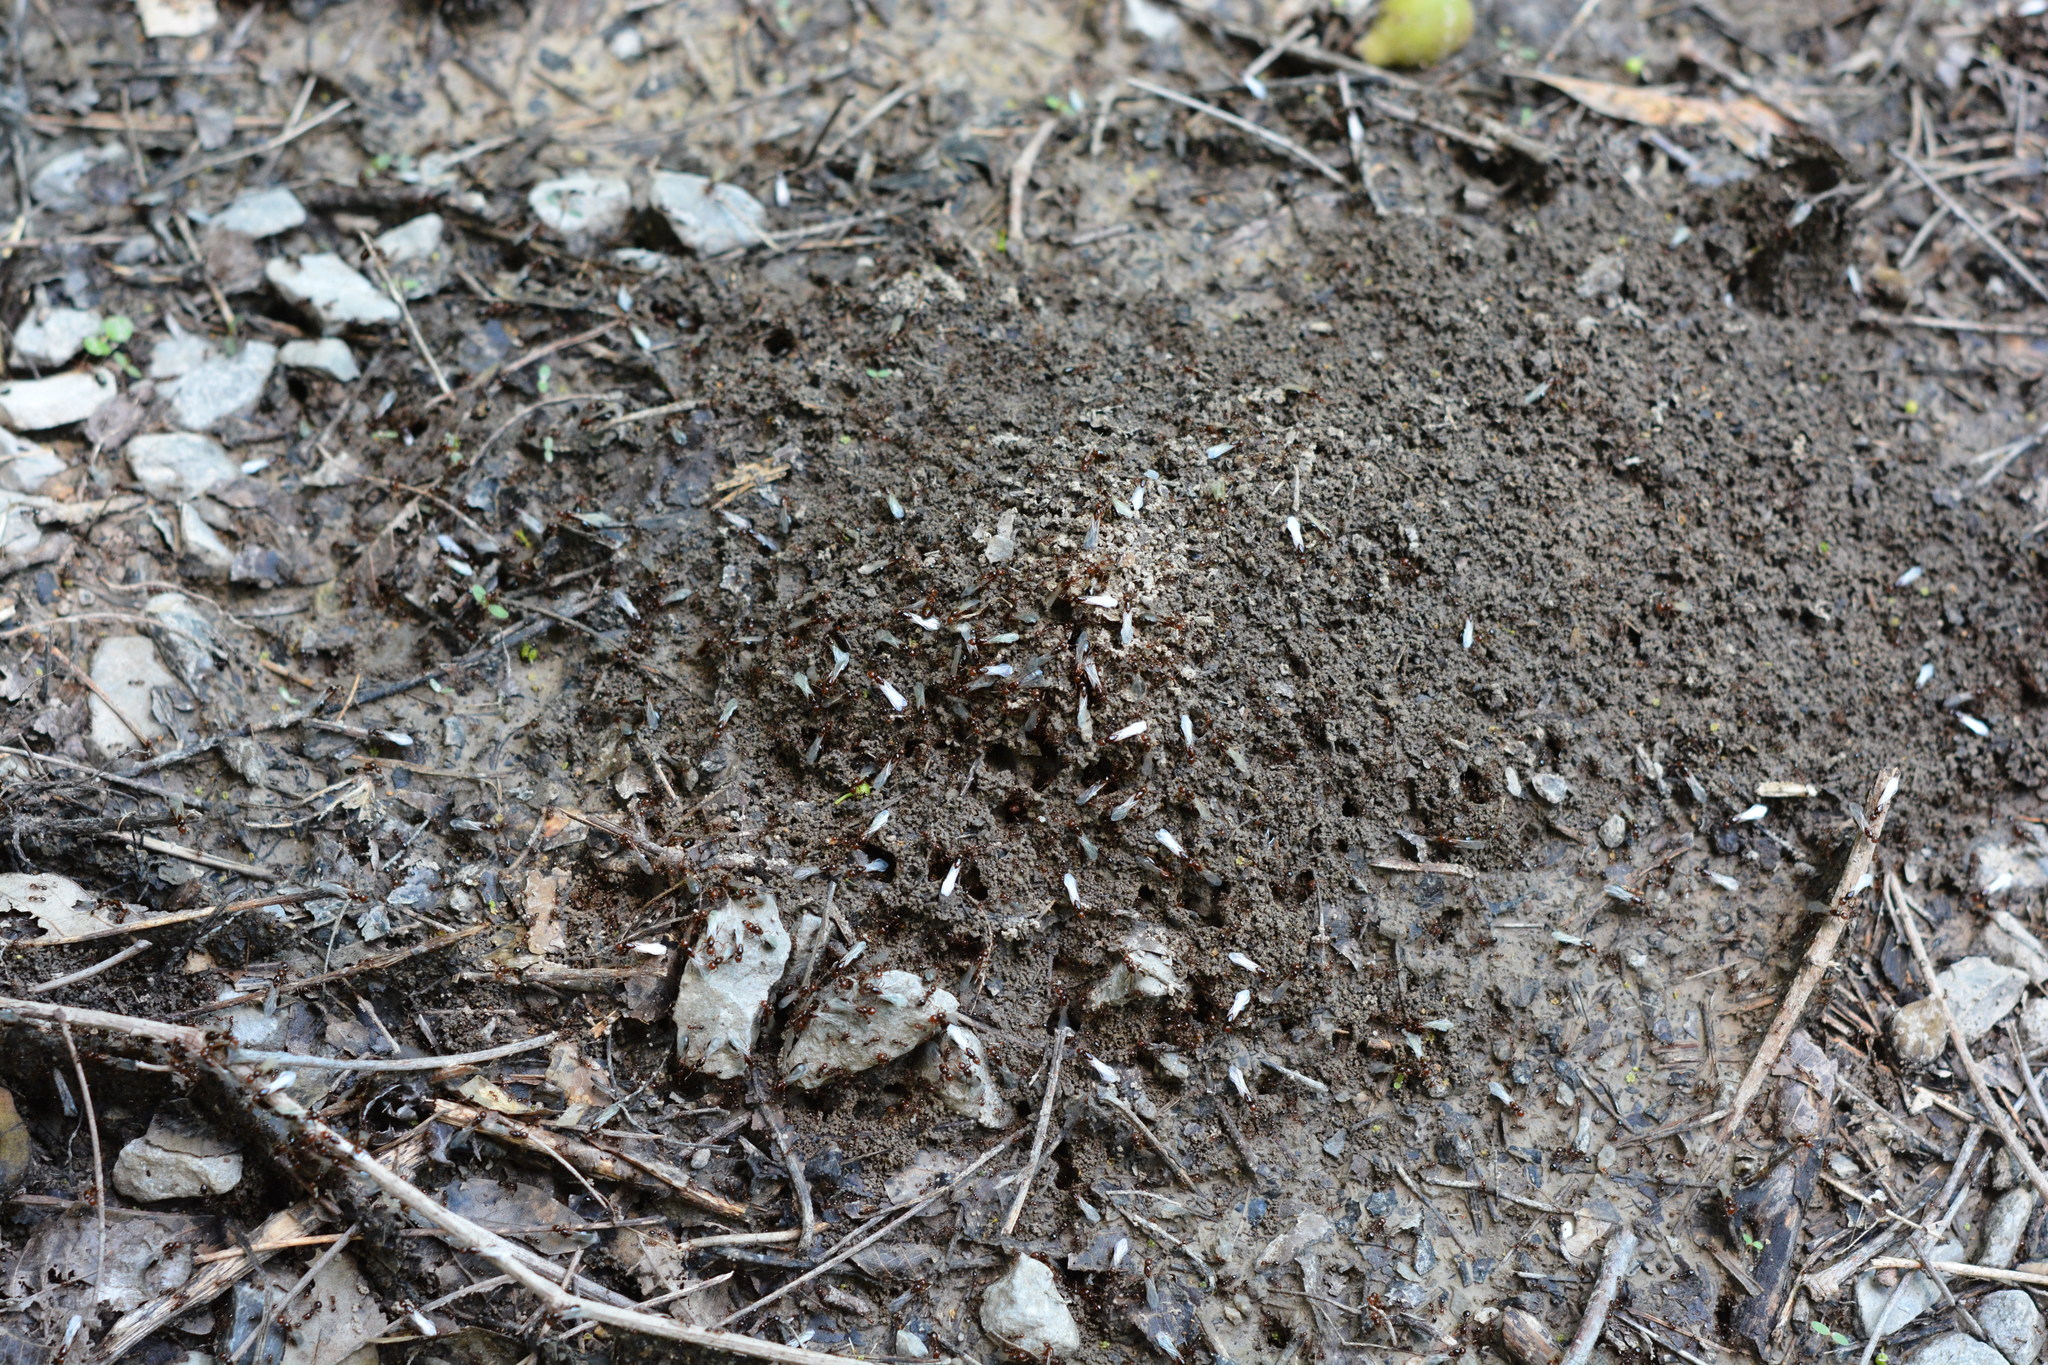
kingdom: Animalia
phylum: Arthropoda
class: Insecta
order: Hymenoptera
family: Formicidae
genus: Solenopsis
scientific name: Solenopsis invicta
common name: Red imported fire ant
